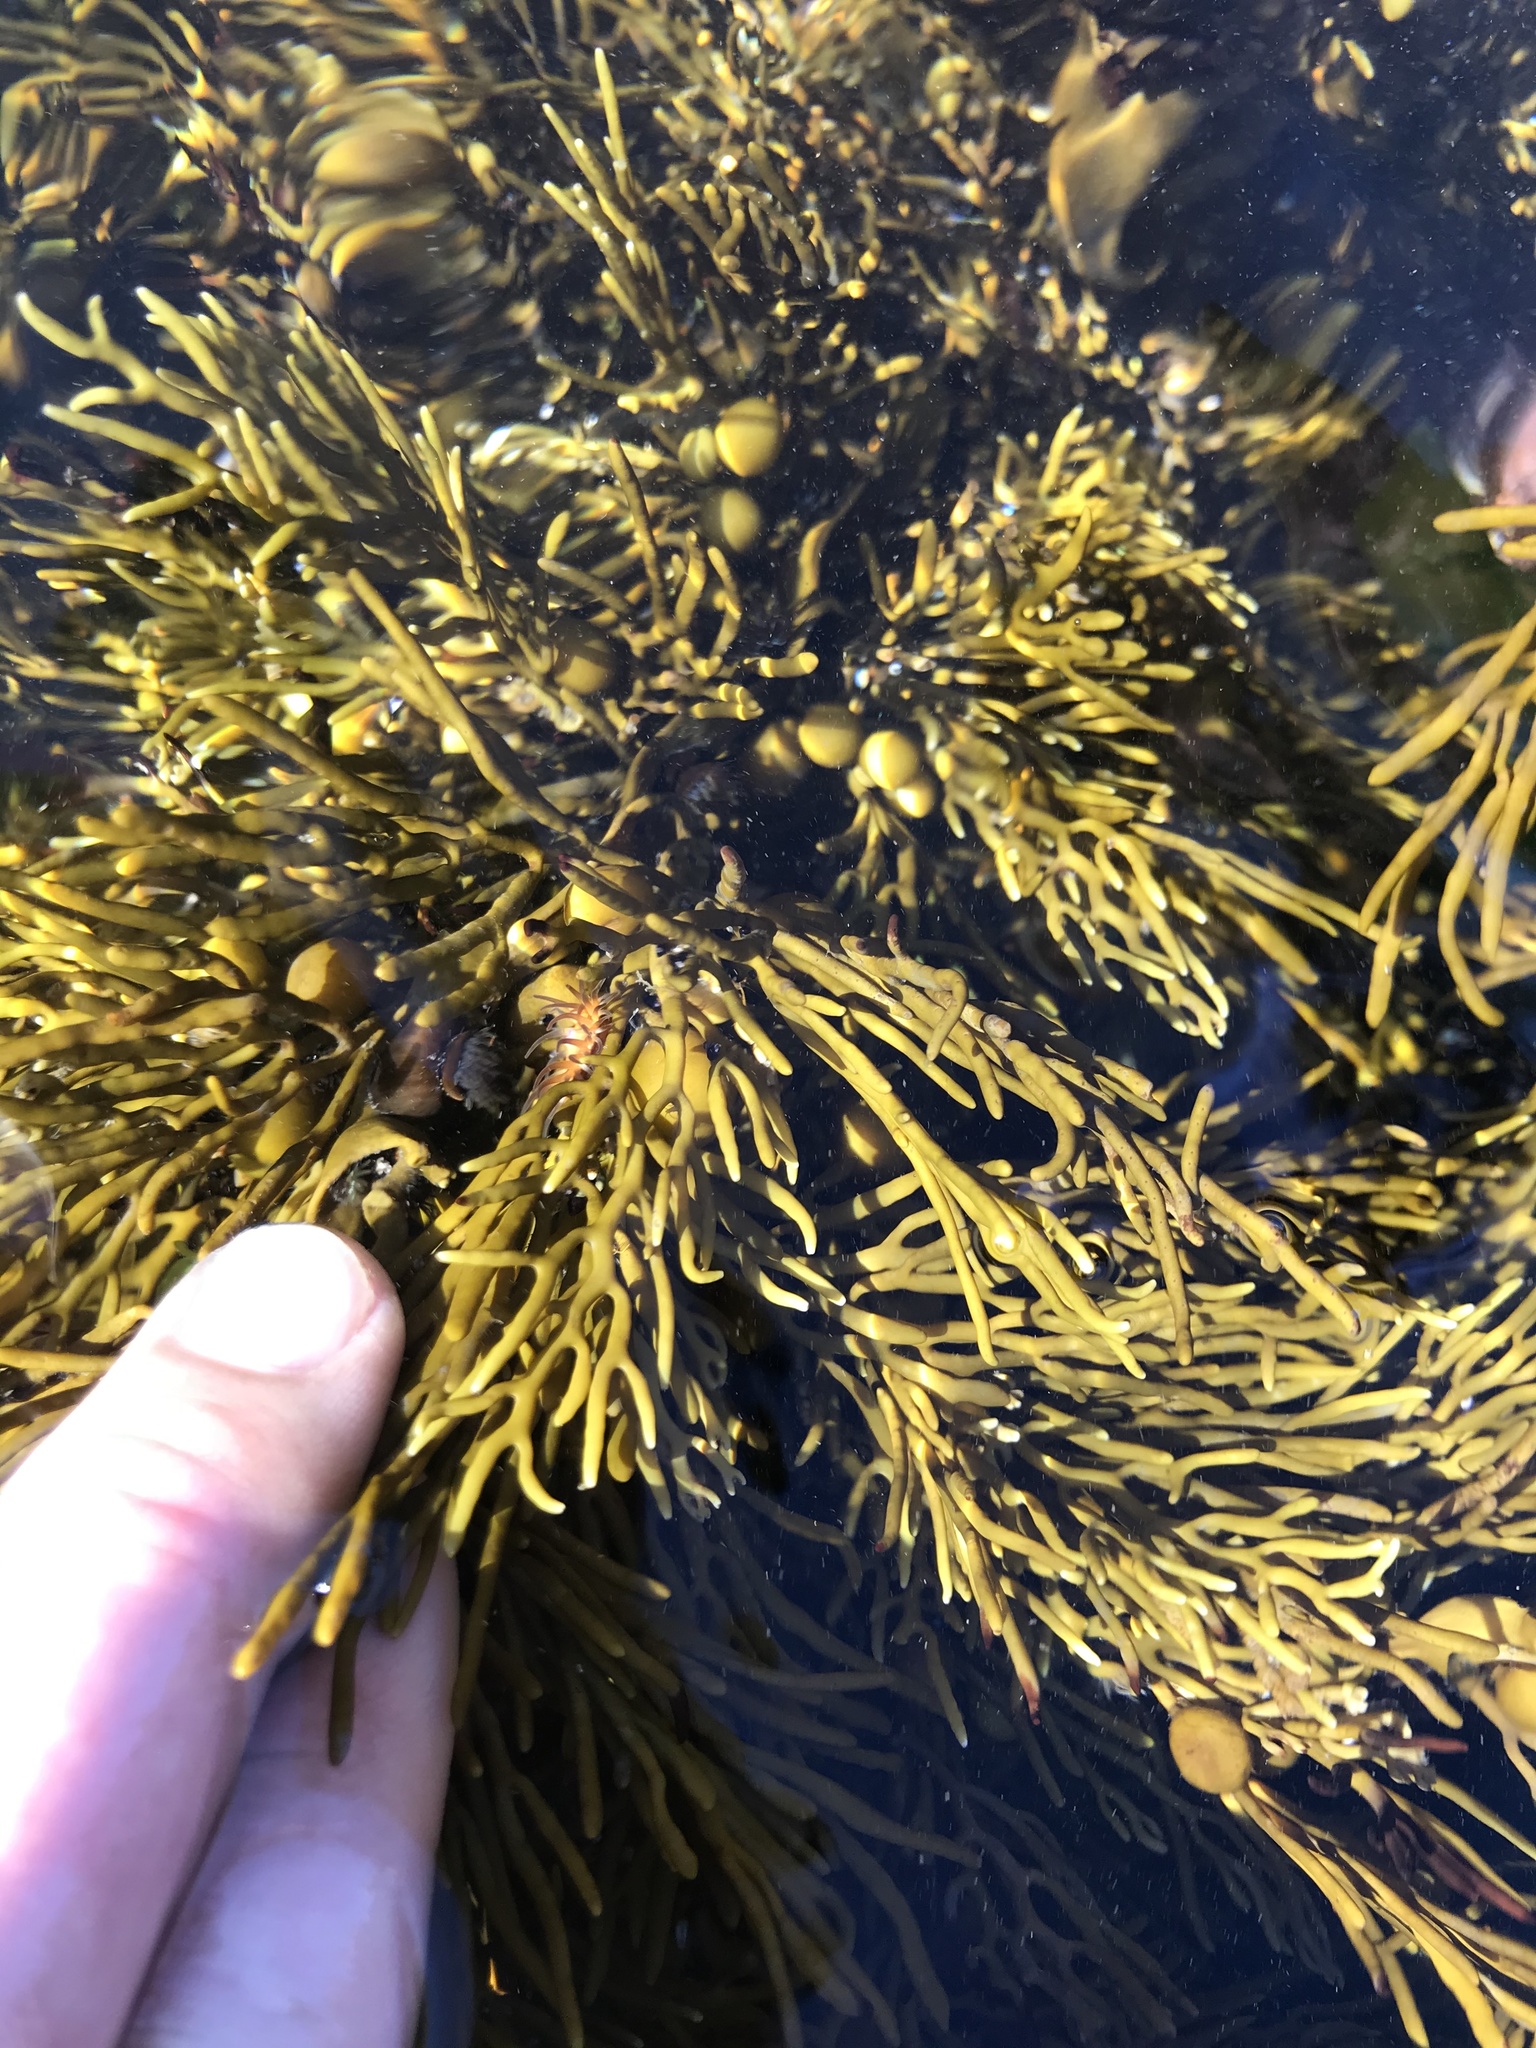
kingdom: Animalia
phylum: Cnidaria
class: Anthozoa
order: Actiniaria
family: Hormathiidae
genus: Handactis
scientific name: Handactis nutrix
